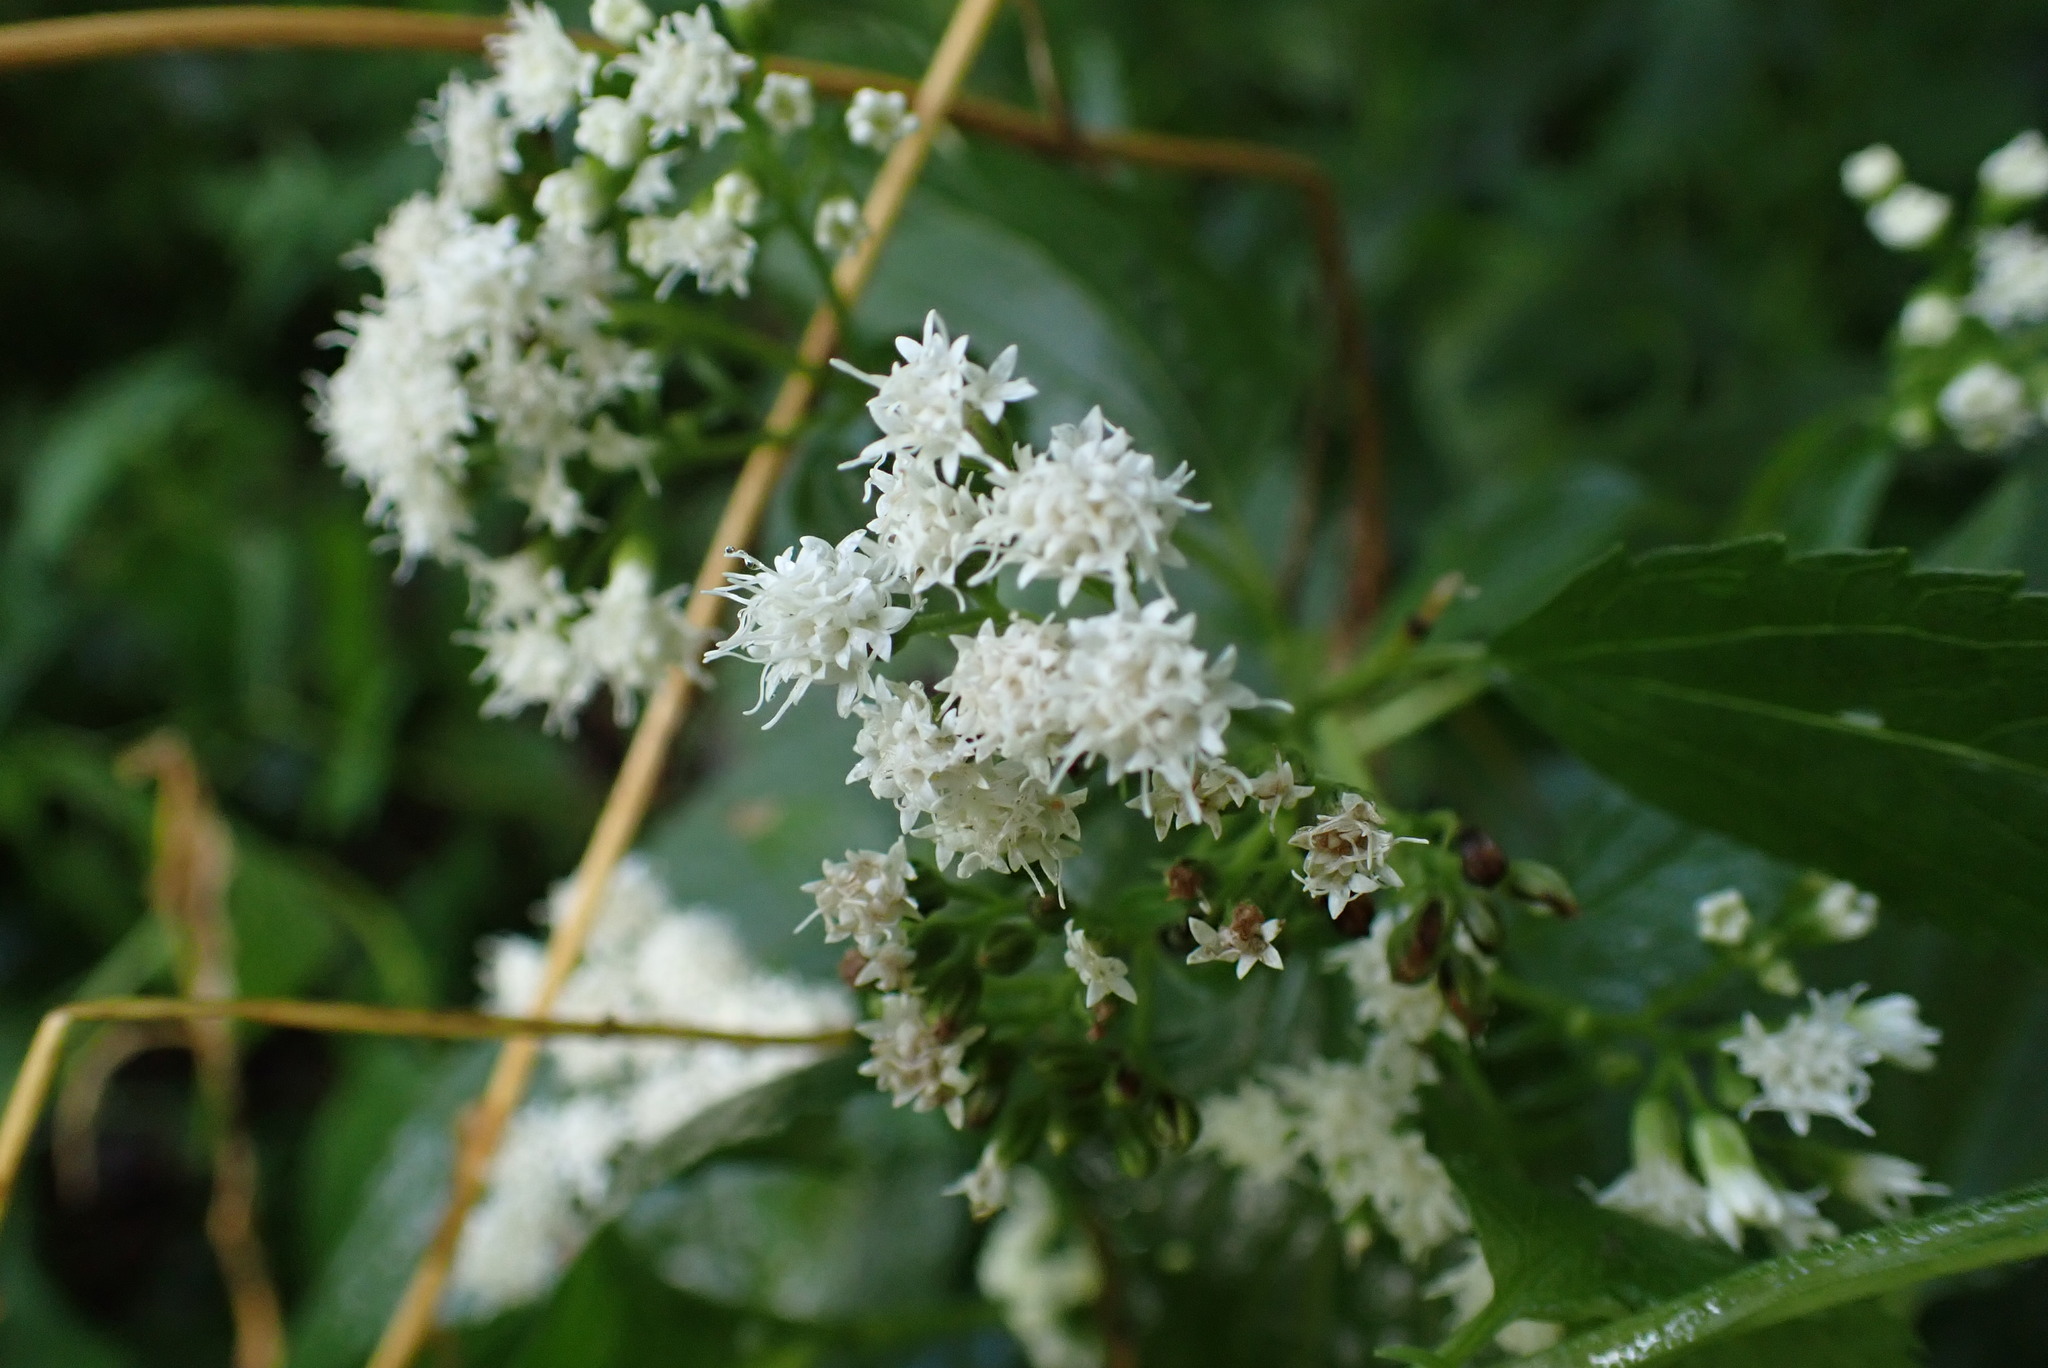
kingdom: Plantae
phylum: Tracheophyta
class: Magnoliopsida
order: Asterales
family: Asteraceae
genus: Ageratina
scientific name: Ageratina altissima
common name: White snakeroot
